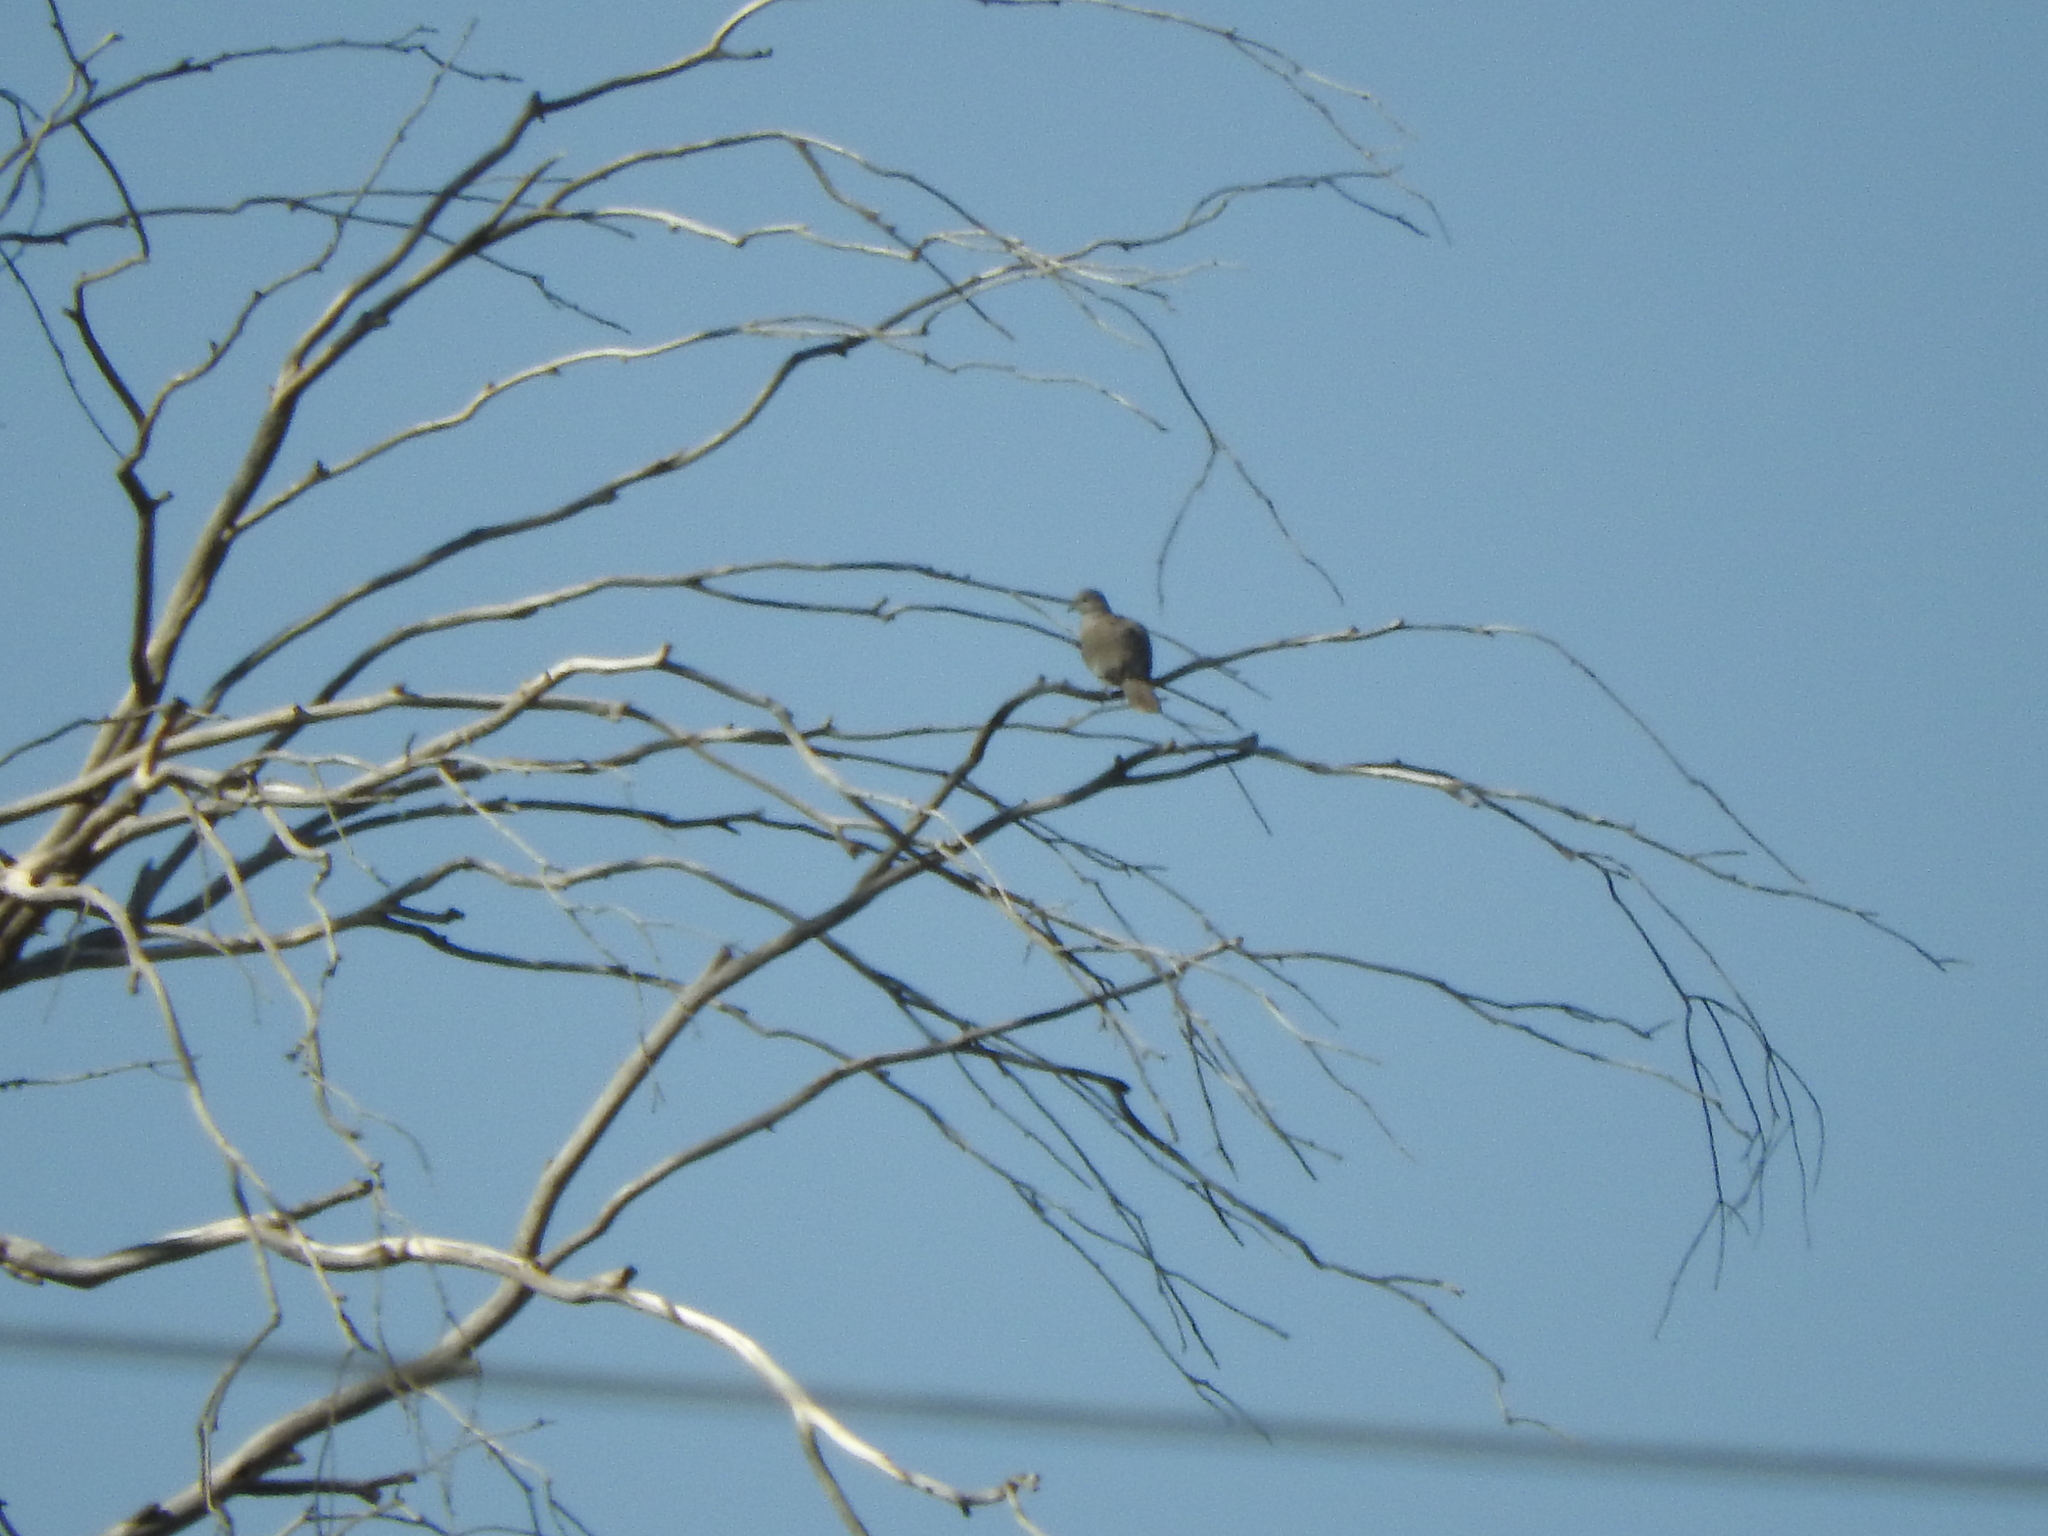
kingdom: Animalia
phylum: Chordata
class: Aves
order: Columbiformes
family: Columbidae
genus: Streptopelia
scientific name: Streptopelia decaocto
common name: Eurasian collared dove
